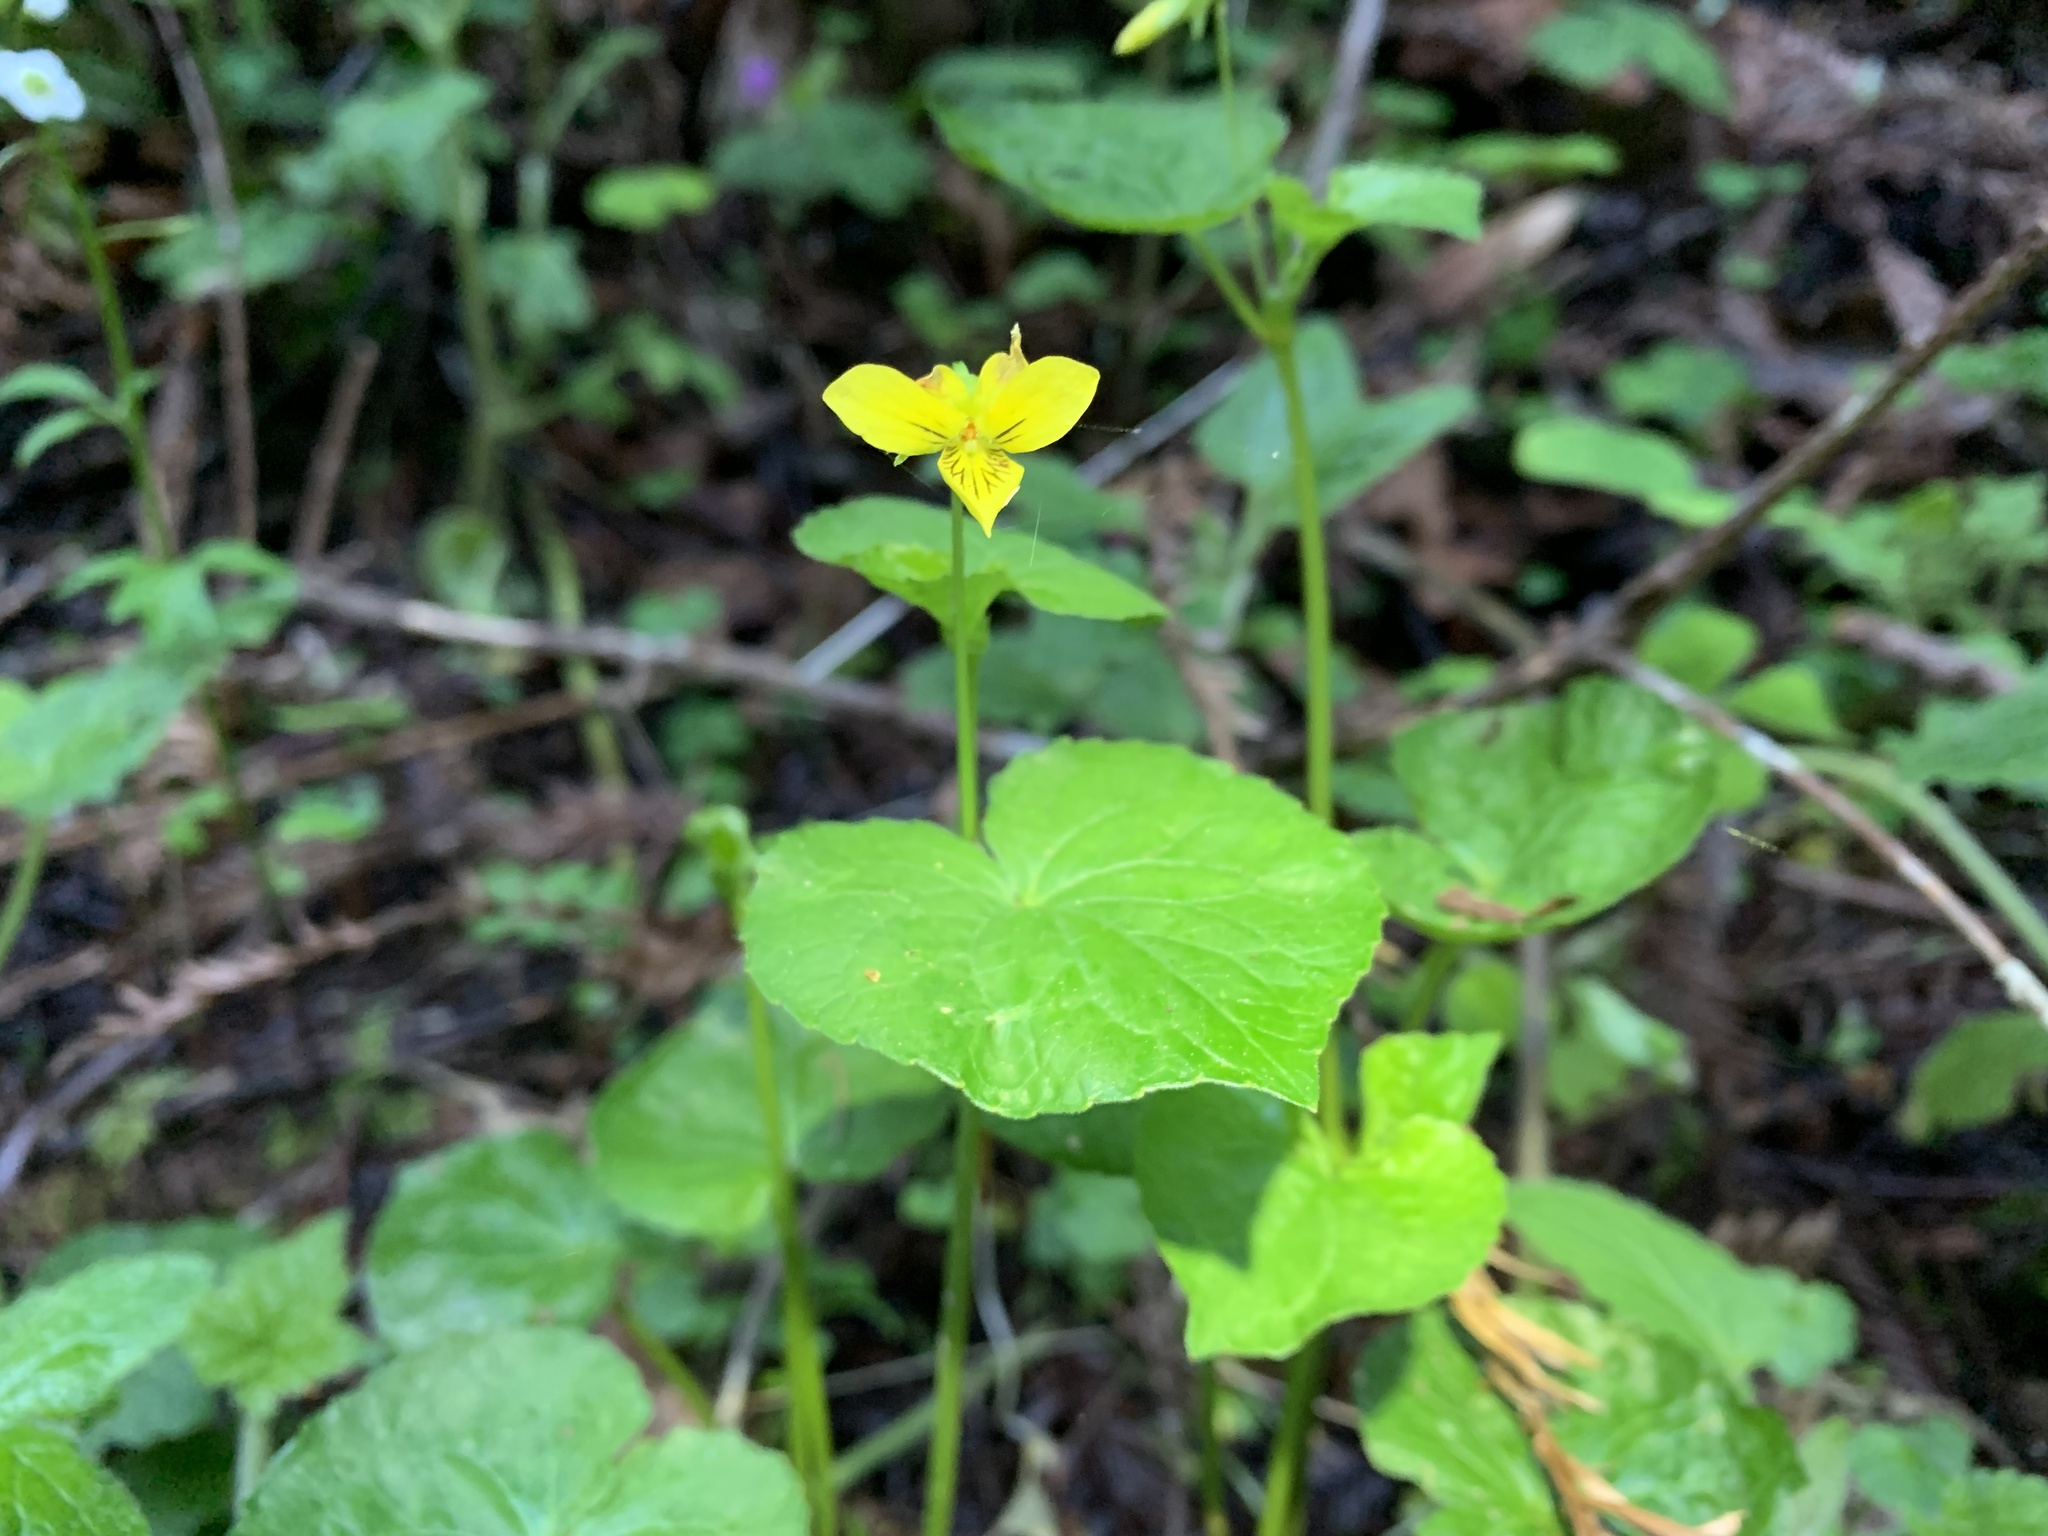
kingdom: Plantae
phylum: Tracheophyta
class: Magnoliopsida
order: Malpighiales
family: Violaceae
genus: Viola
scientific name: Viola glabella
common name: Stream violet
